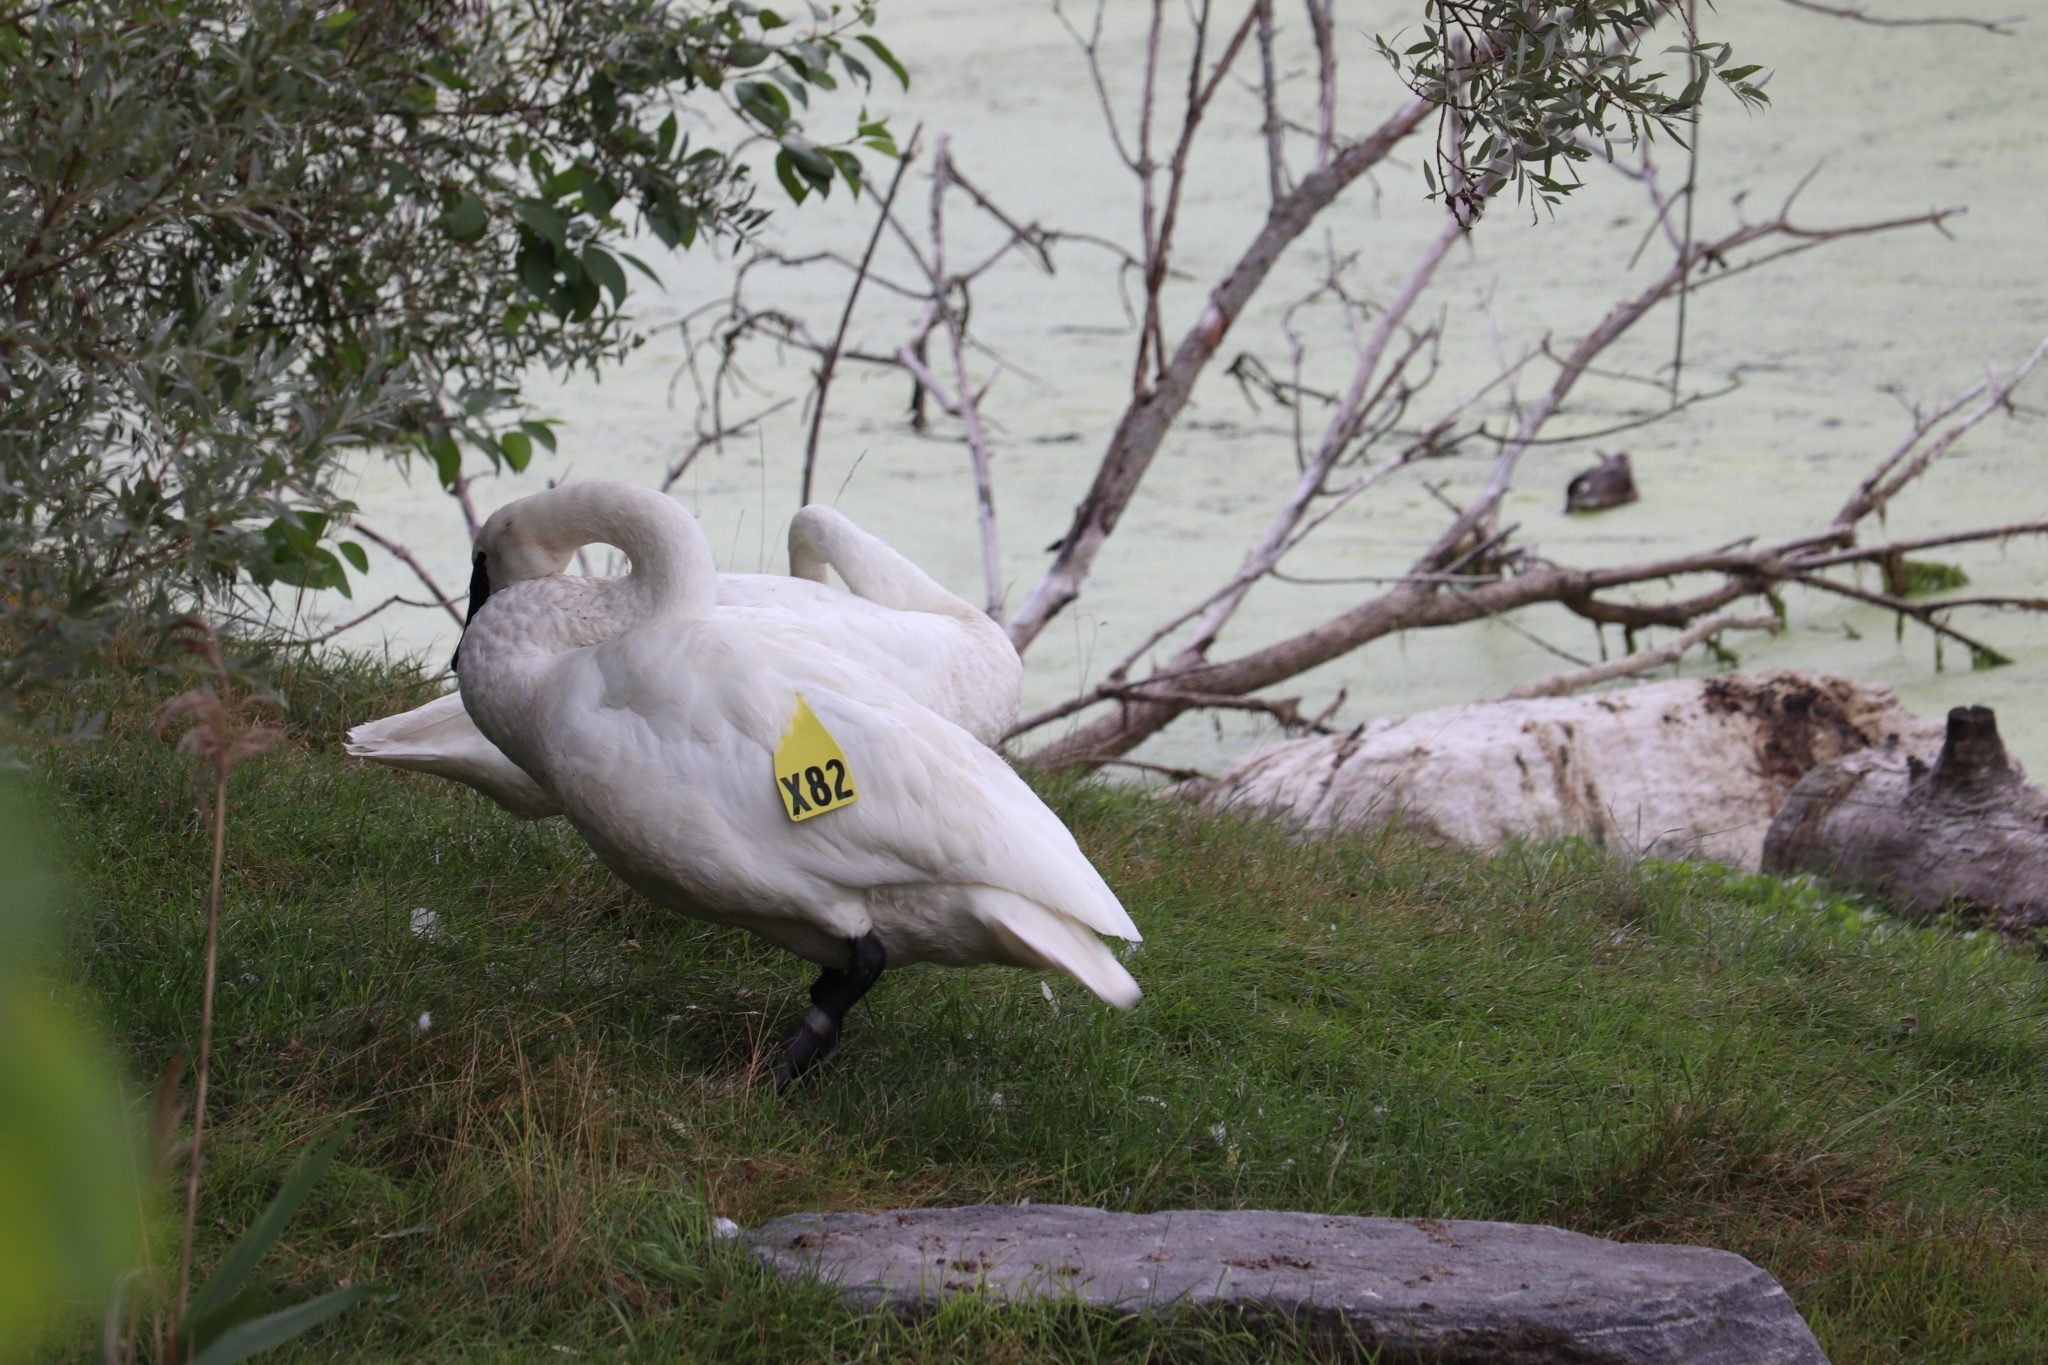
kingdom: Animalia
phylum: Chordata
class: Aves
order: Anseriformes
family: Anatidae
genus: Cygnus
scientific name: Cygnus buccinator
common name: Trumpeter swan
